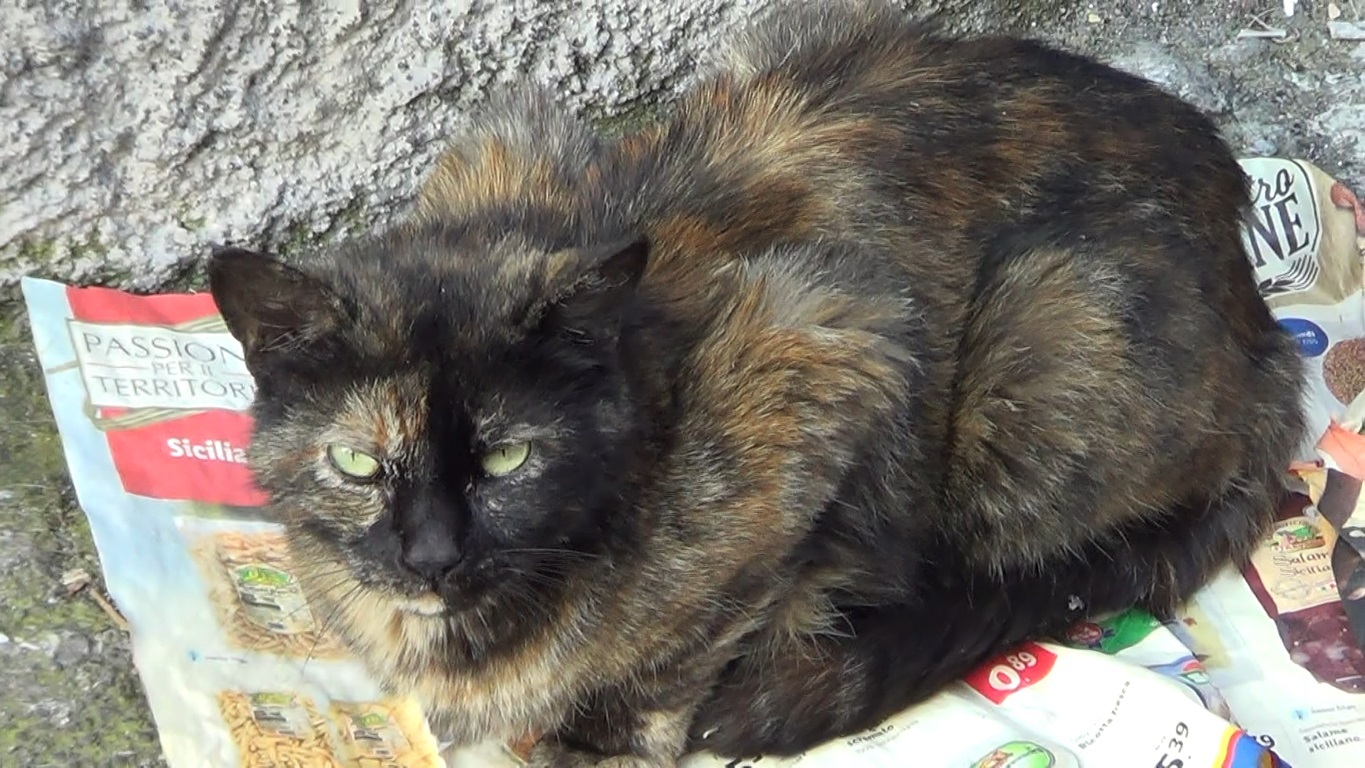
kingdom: Animalia
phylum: Chordata
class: Mammalia
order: Carnivora
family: Felidae
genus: Felis
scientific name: Felis catus
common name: Domestic cat
